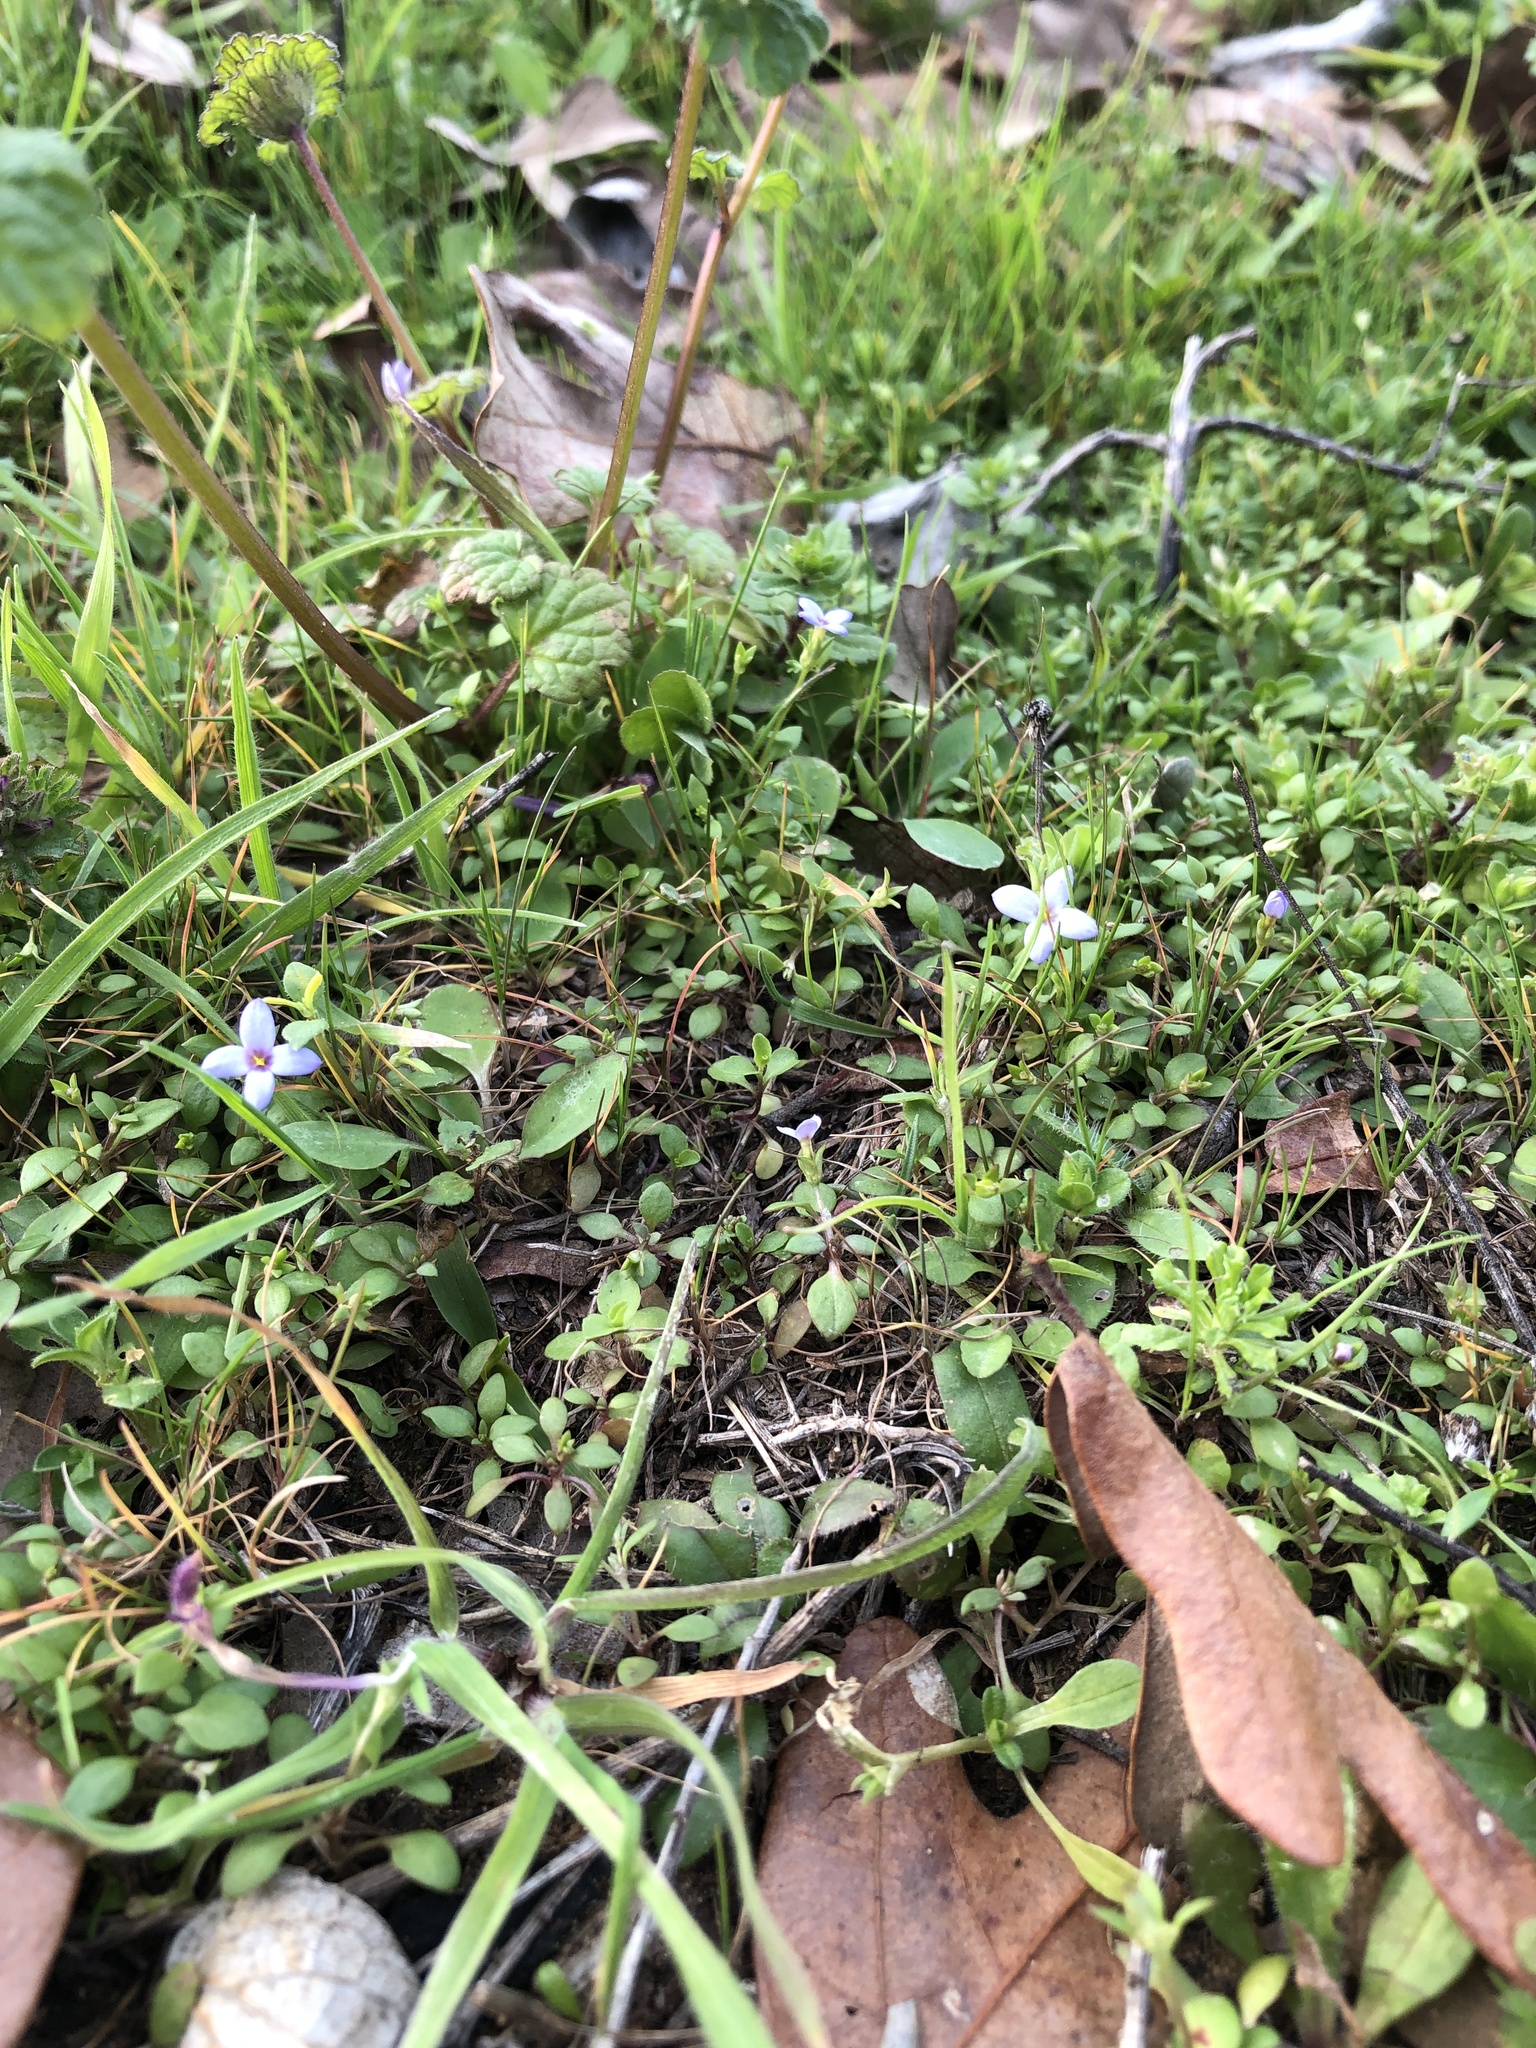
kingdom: Plantae
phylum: Tracheophyta
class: Magnoliopsida
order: Gentianales
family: Rubiaceae
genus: Houstonia
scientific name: Houstonia pusilla
